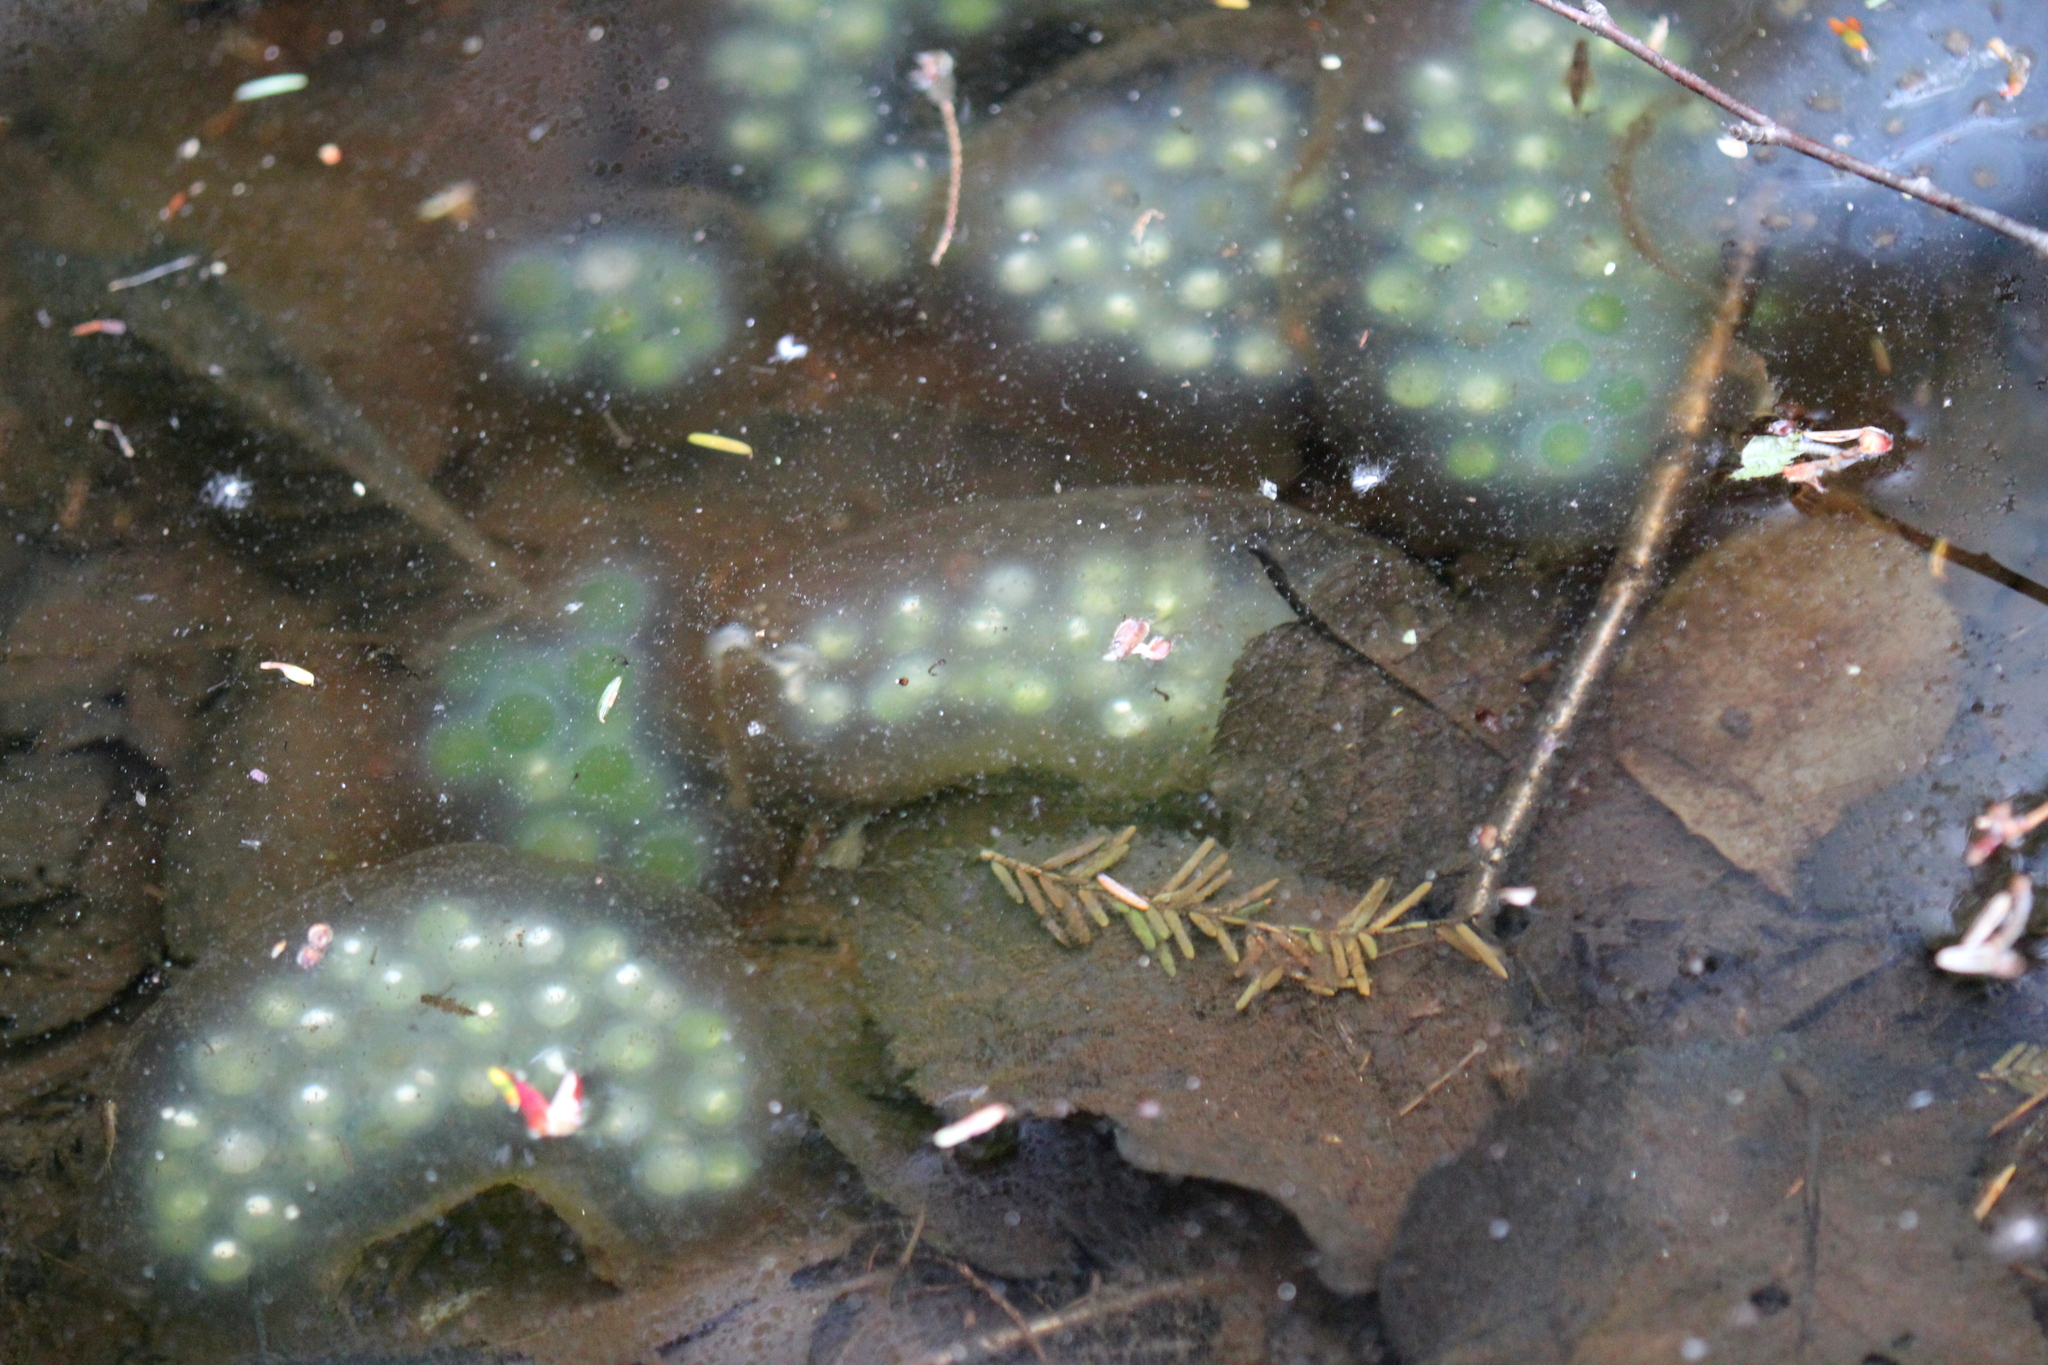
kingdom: Animalia
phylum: Chordata
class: Amphibia
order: Caudata
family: Ambystomatidae
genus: Ambystoma
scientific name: Ambystoma maculatum
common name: Spotted salamander
